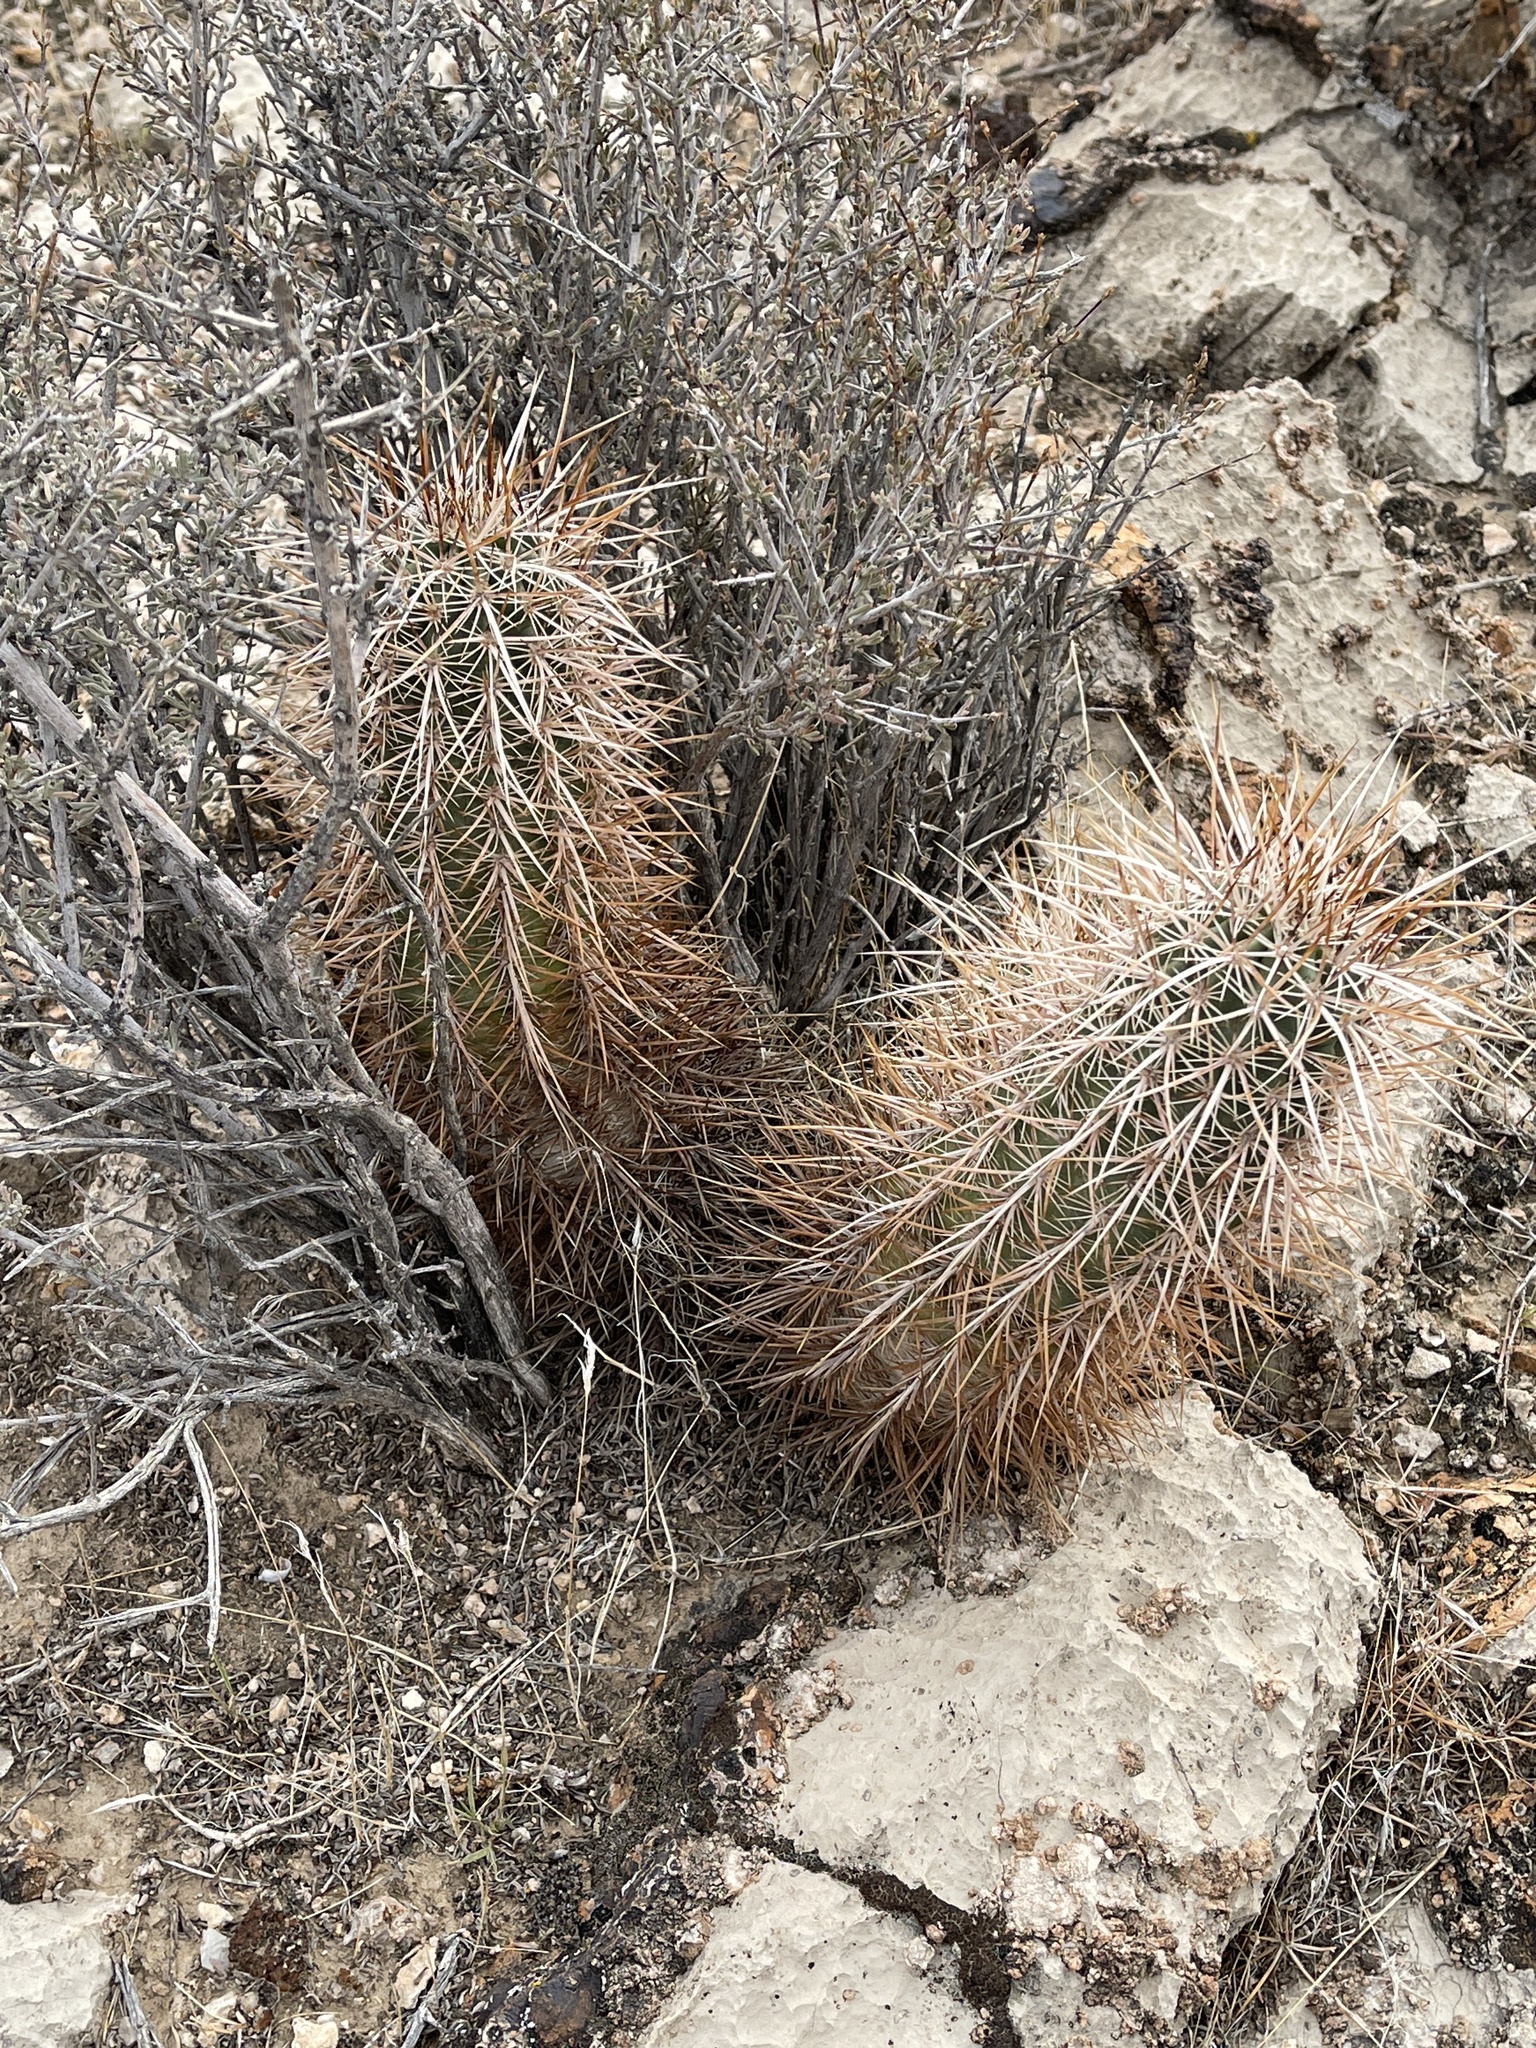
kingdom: Plantae
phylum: Tracheophyta
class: Magnoliopsida
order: Caryophyllales
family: Cactaceae
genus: Echinocereus
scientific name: Echinocereus engelmannii
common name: Engelmann's hedgehog cactus
